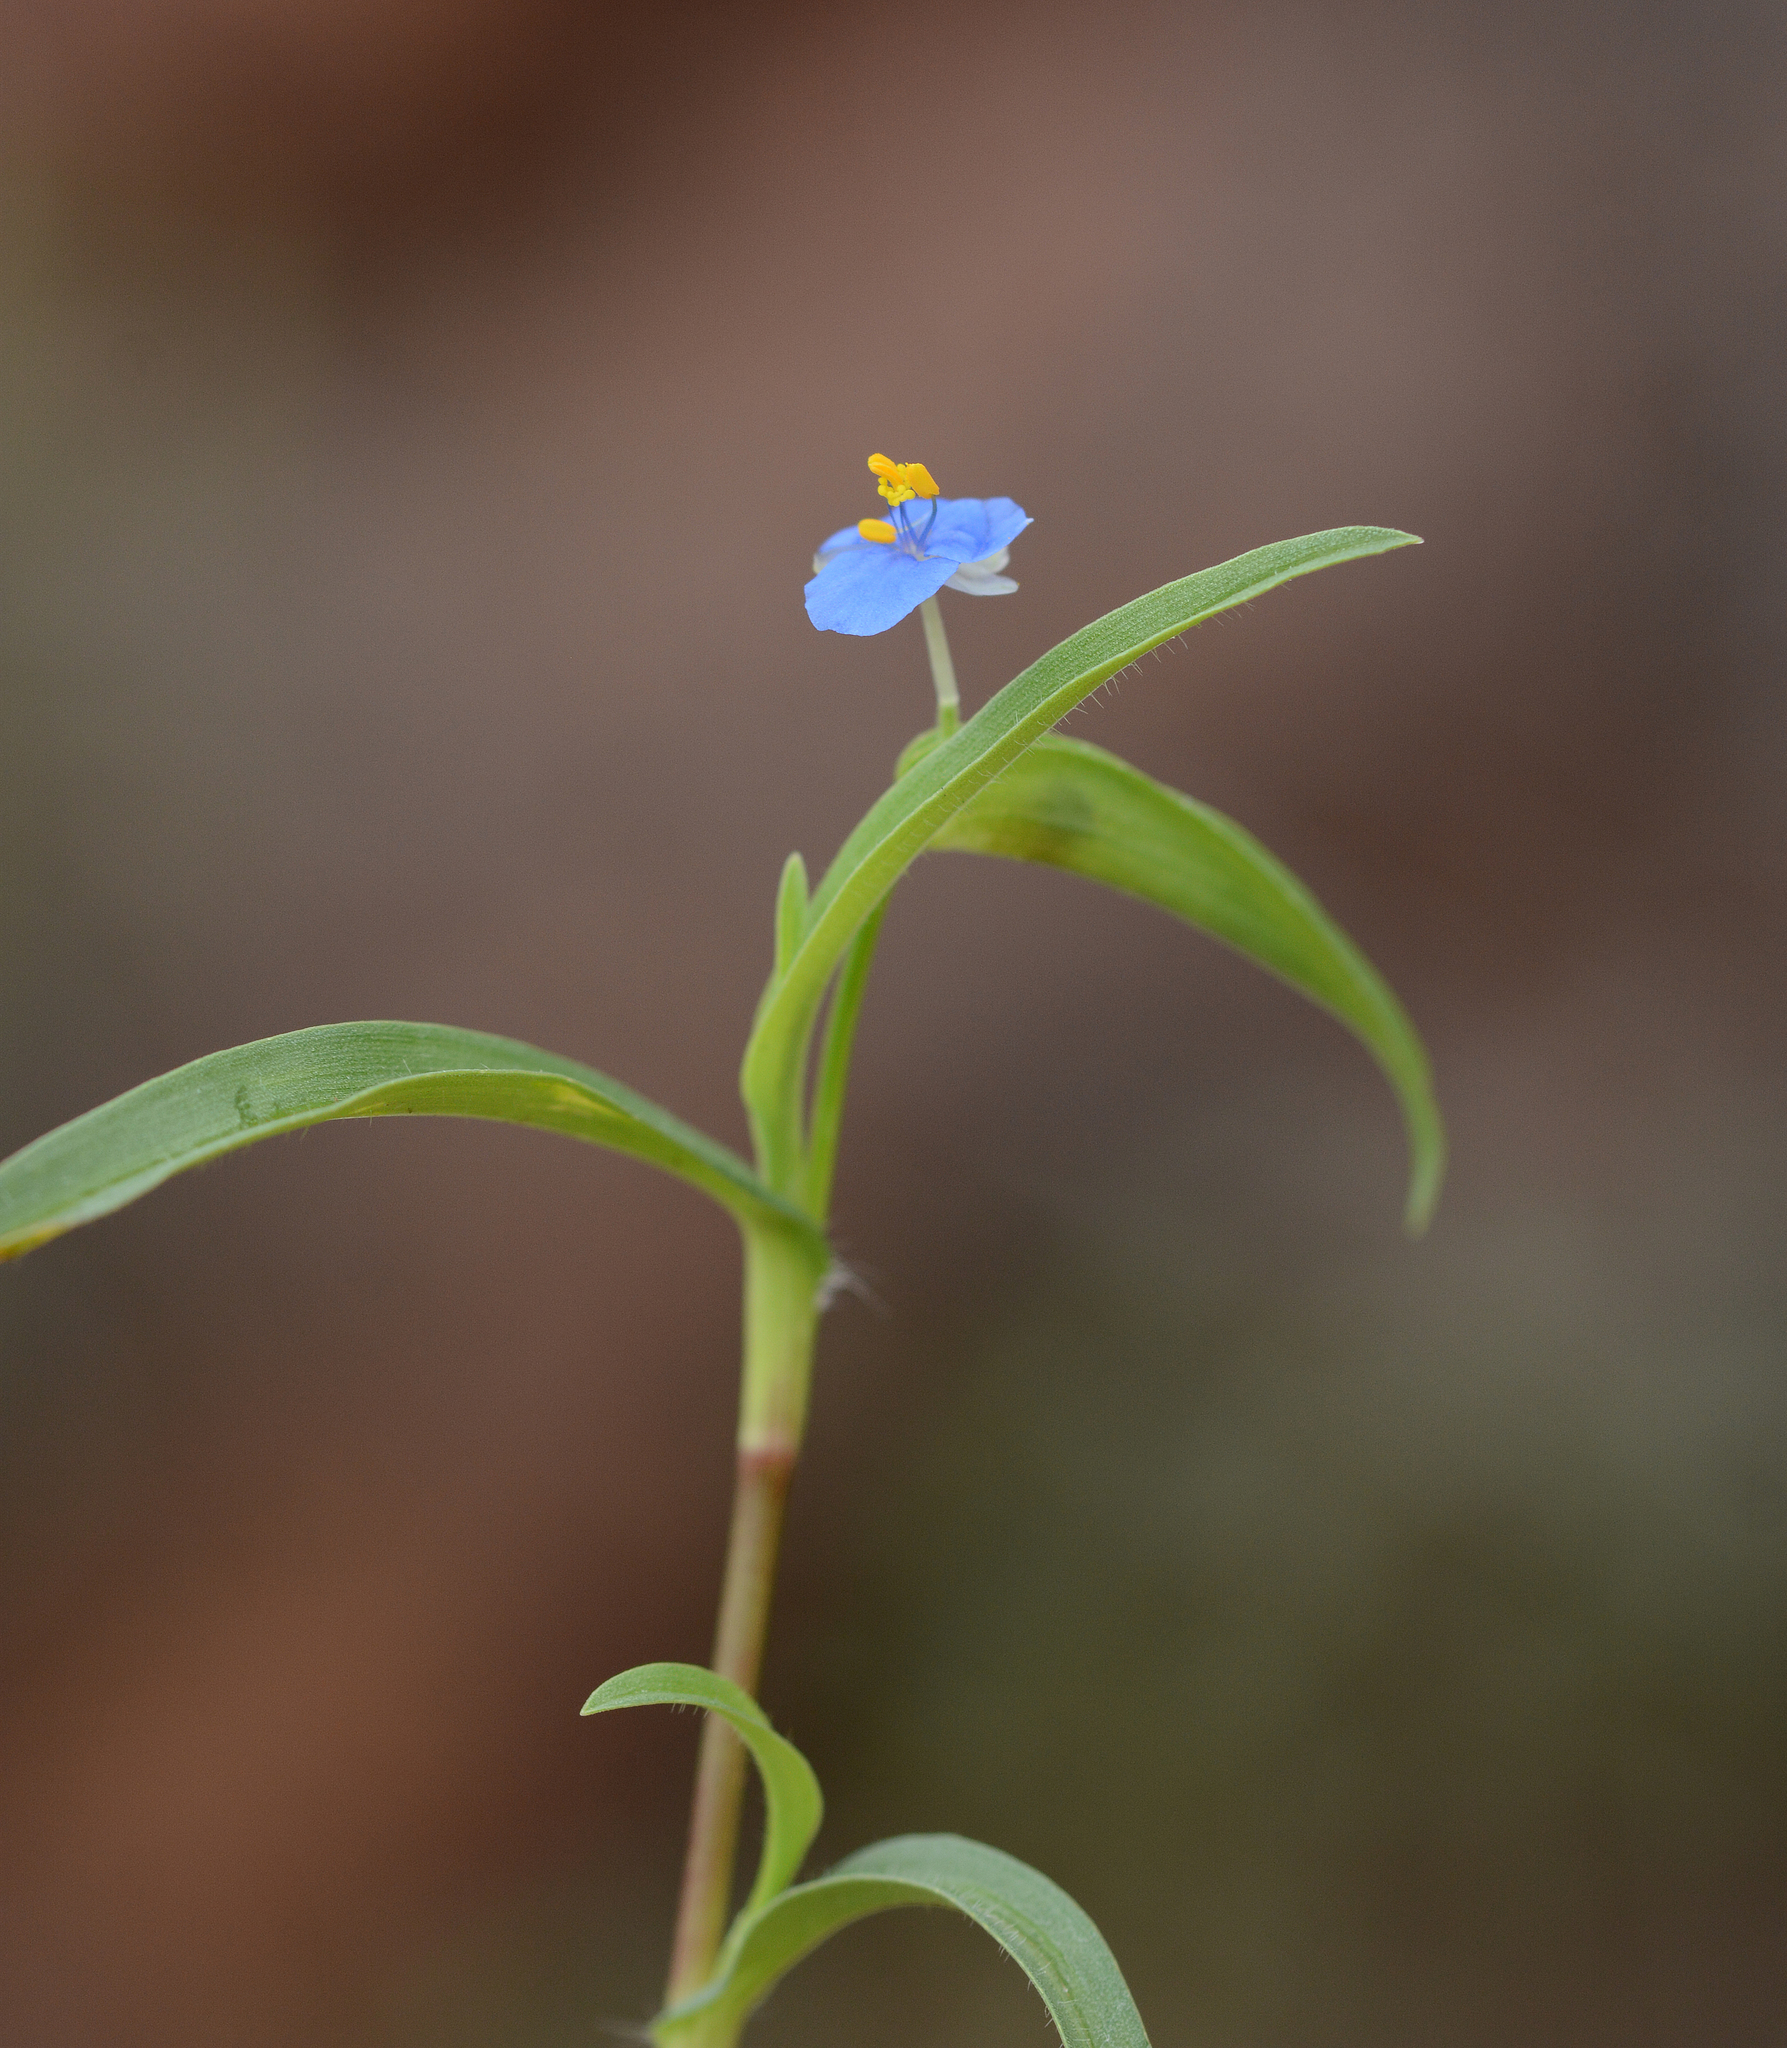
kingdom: Plantae
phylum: Tracheophyta
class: Liliopsida
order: Commelinales
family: Commelinaceae
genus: Commelina
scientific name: Commelina badamica
